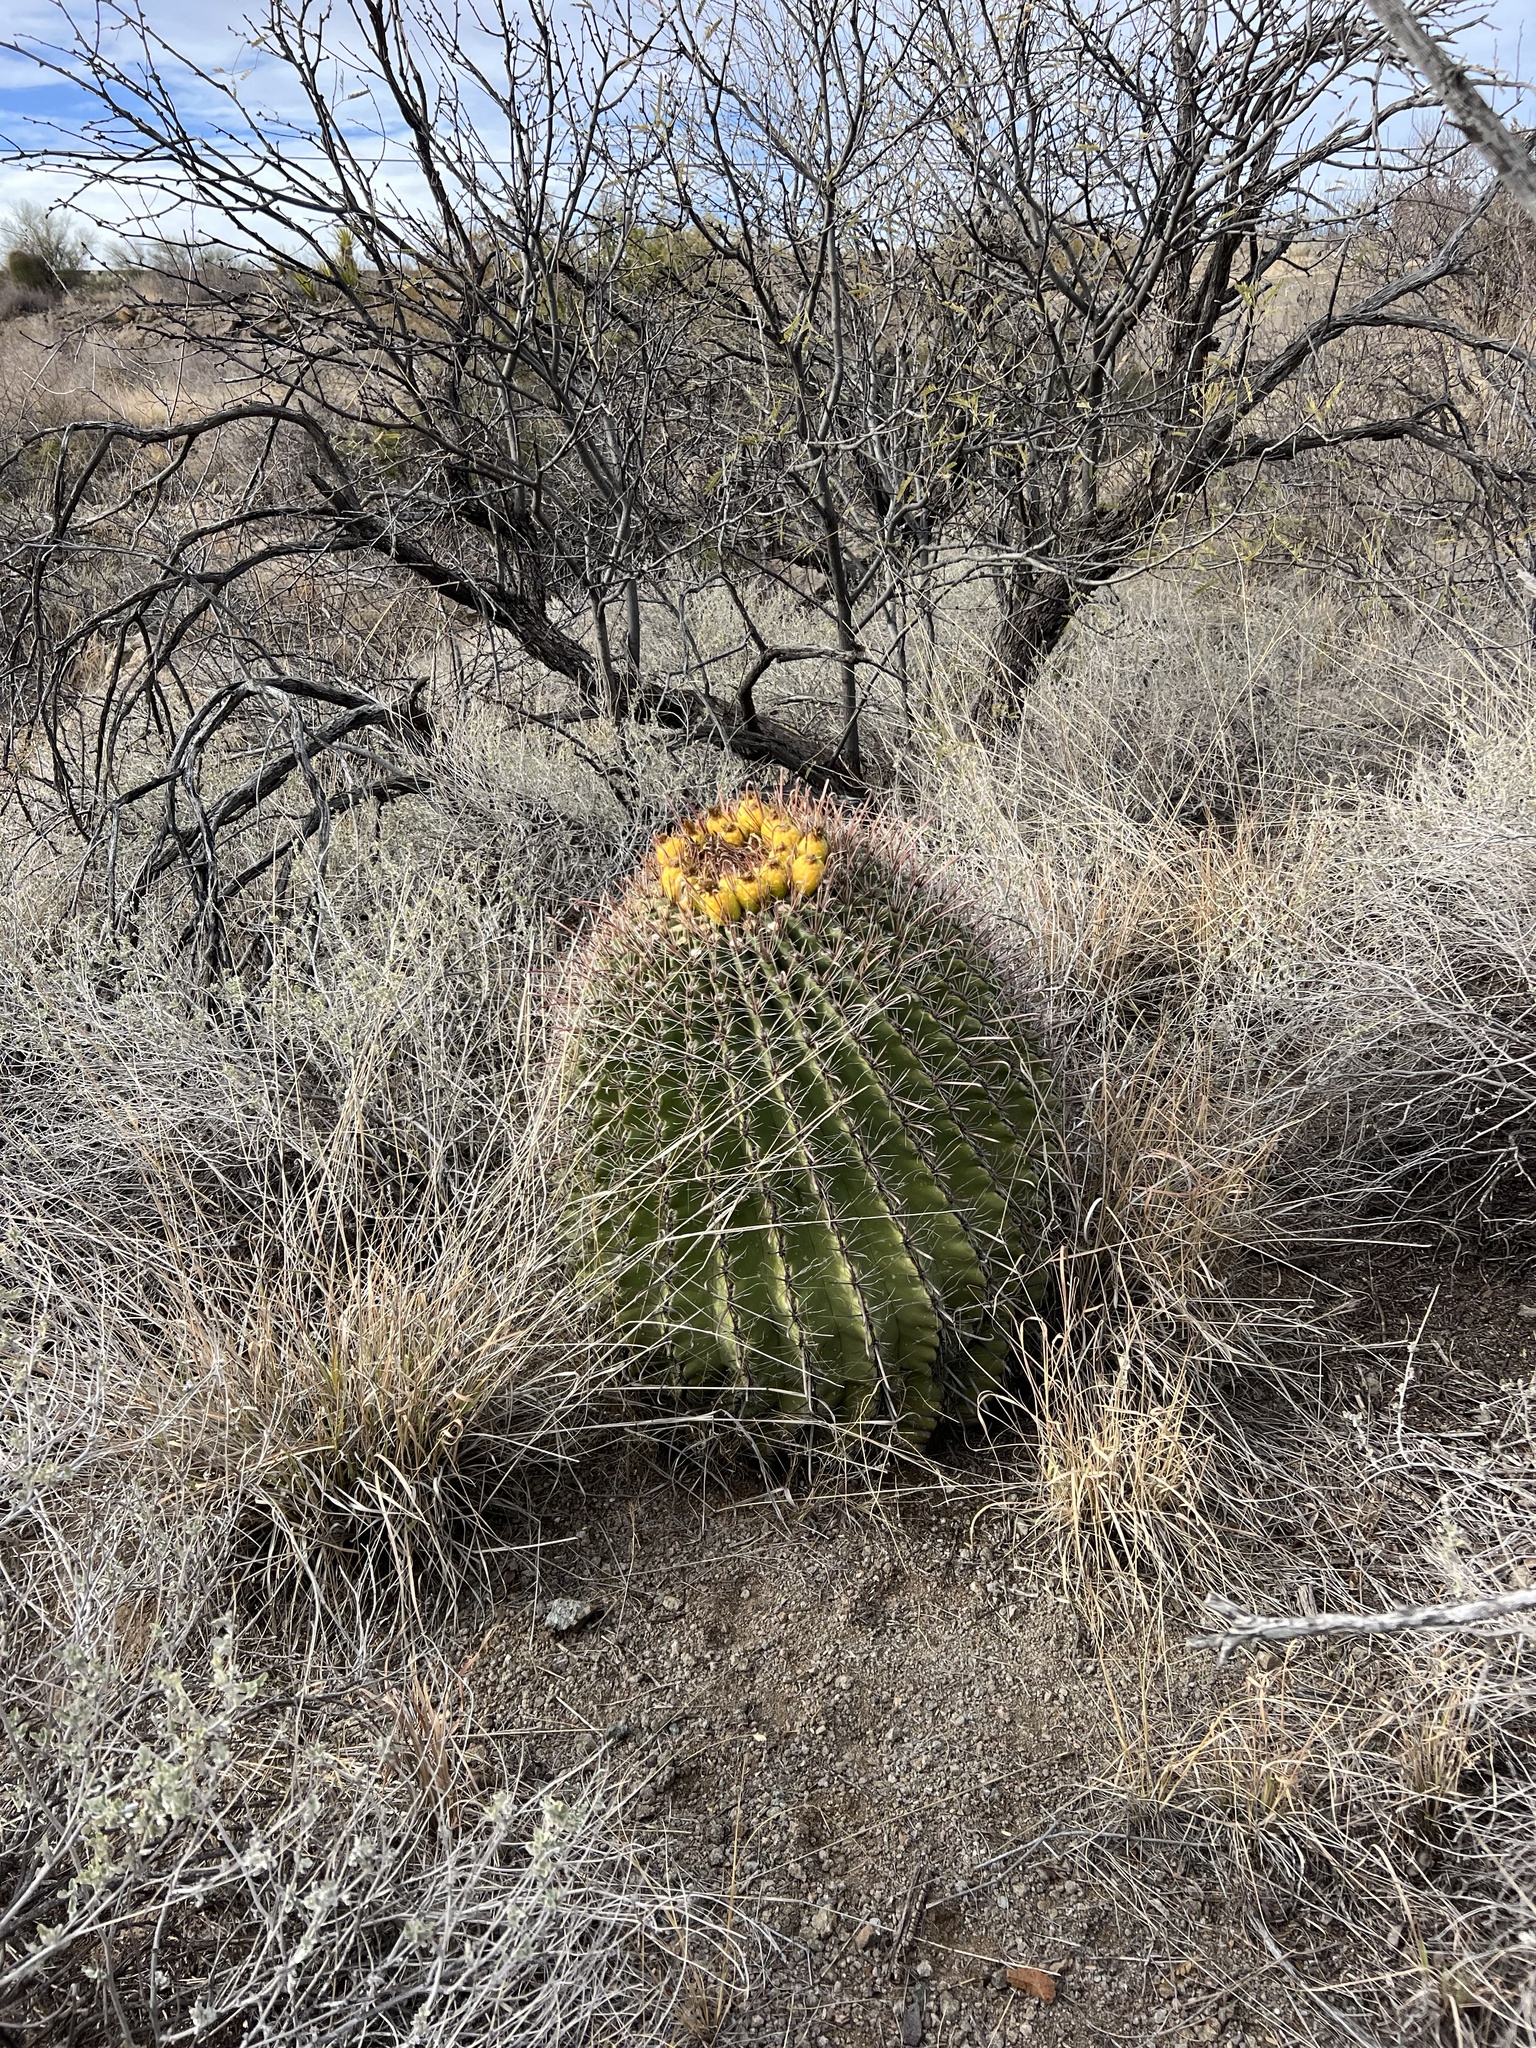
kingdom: Plantae
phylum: Tracheophyta
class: Magnoliopsida
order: Caryophyllales
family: Cactaceae
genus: Ferocactus
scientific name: Ferocactus wislizeni
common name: Candy barrel cactus
